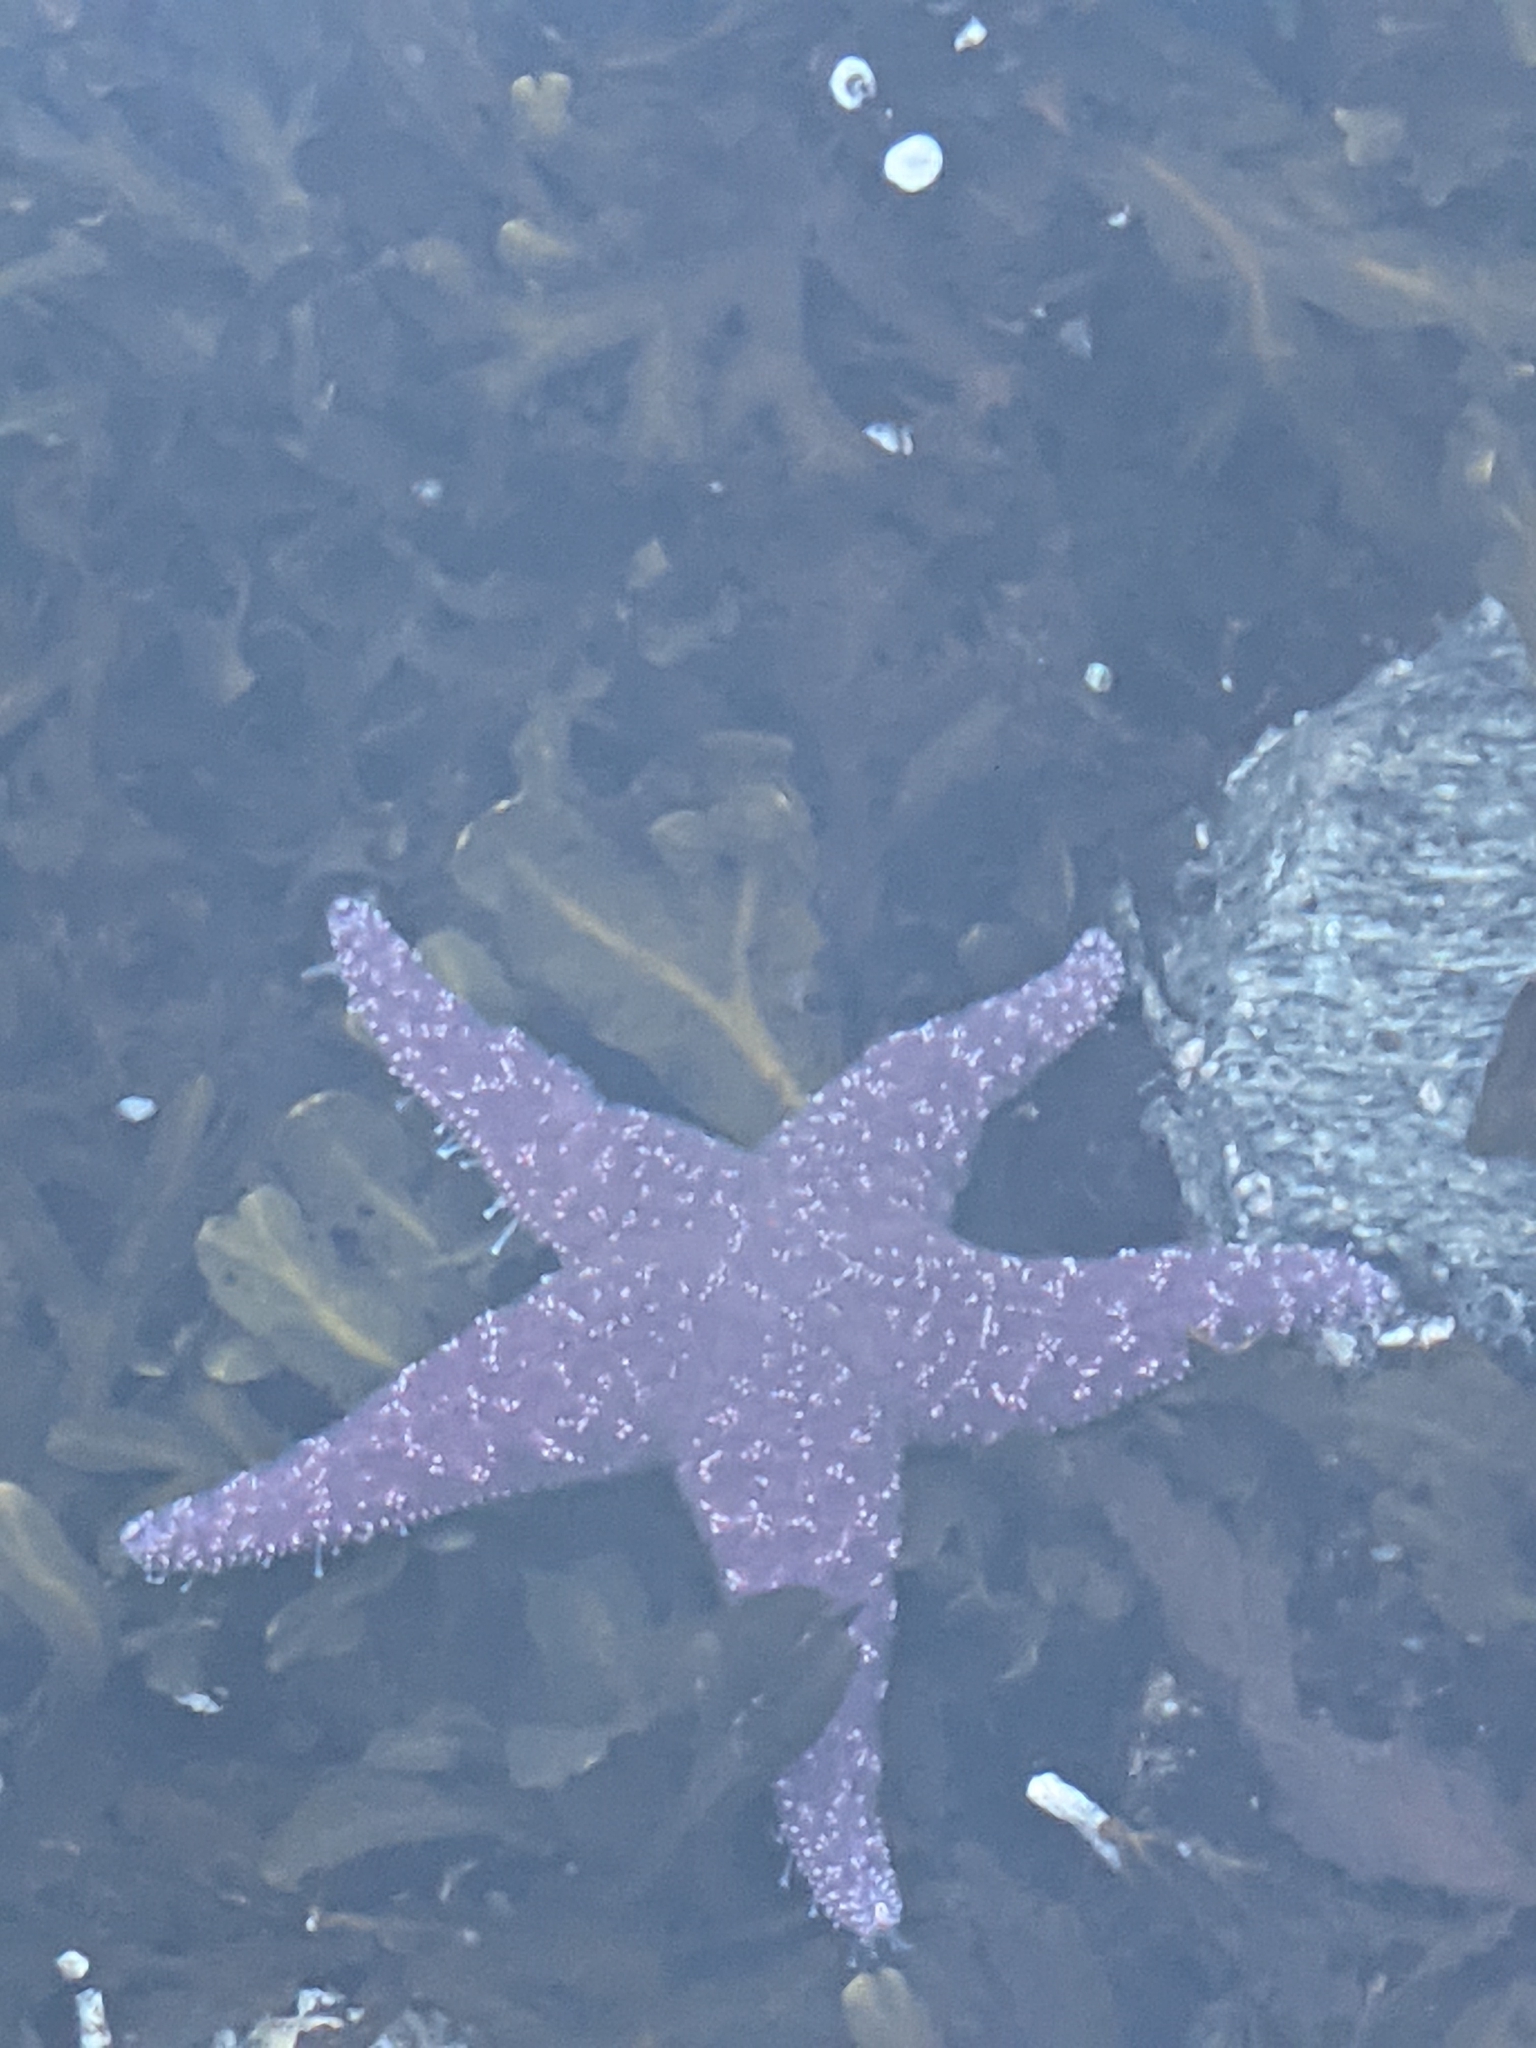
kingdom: Animalia
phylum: Echinodermata
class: Asteroidea
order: Forcipulatida
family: Asteriidae
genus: Pisaster
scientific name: Pisaster ochraceus
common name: Ochre stars
